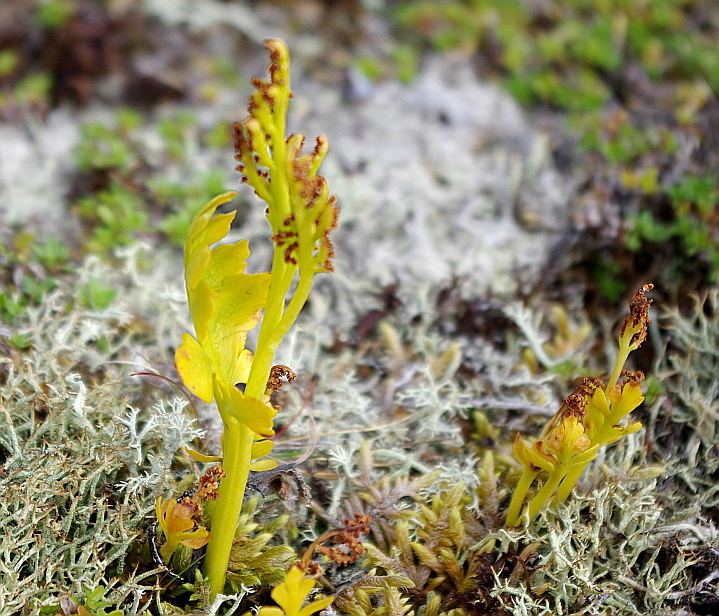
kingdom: Plantae
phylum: Tracheophyta
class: Polypodiopsida
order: Ophioglossales
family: Ophioglossaceae
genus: Botrychium
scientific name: Botrychium boreale
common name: Boreal moonwort
